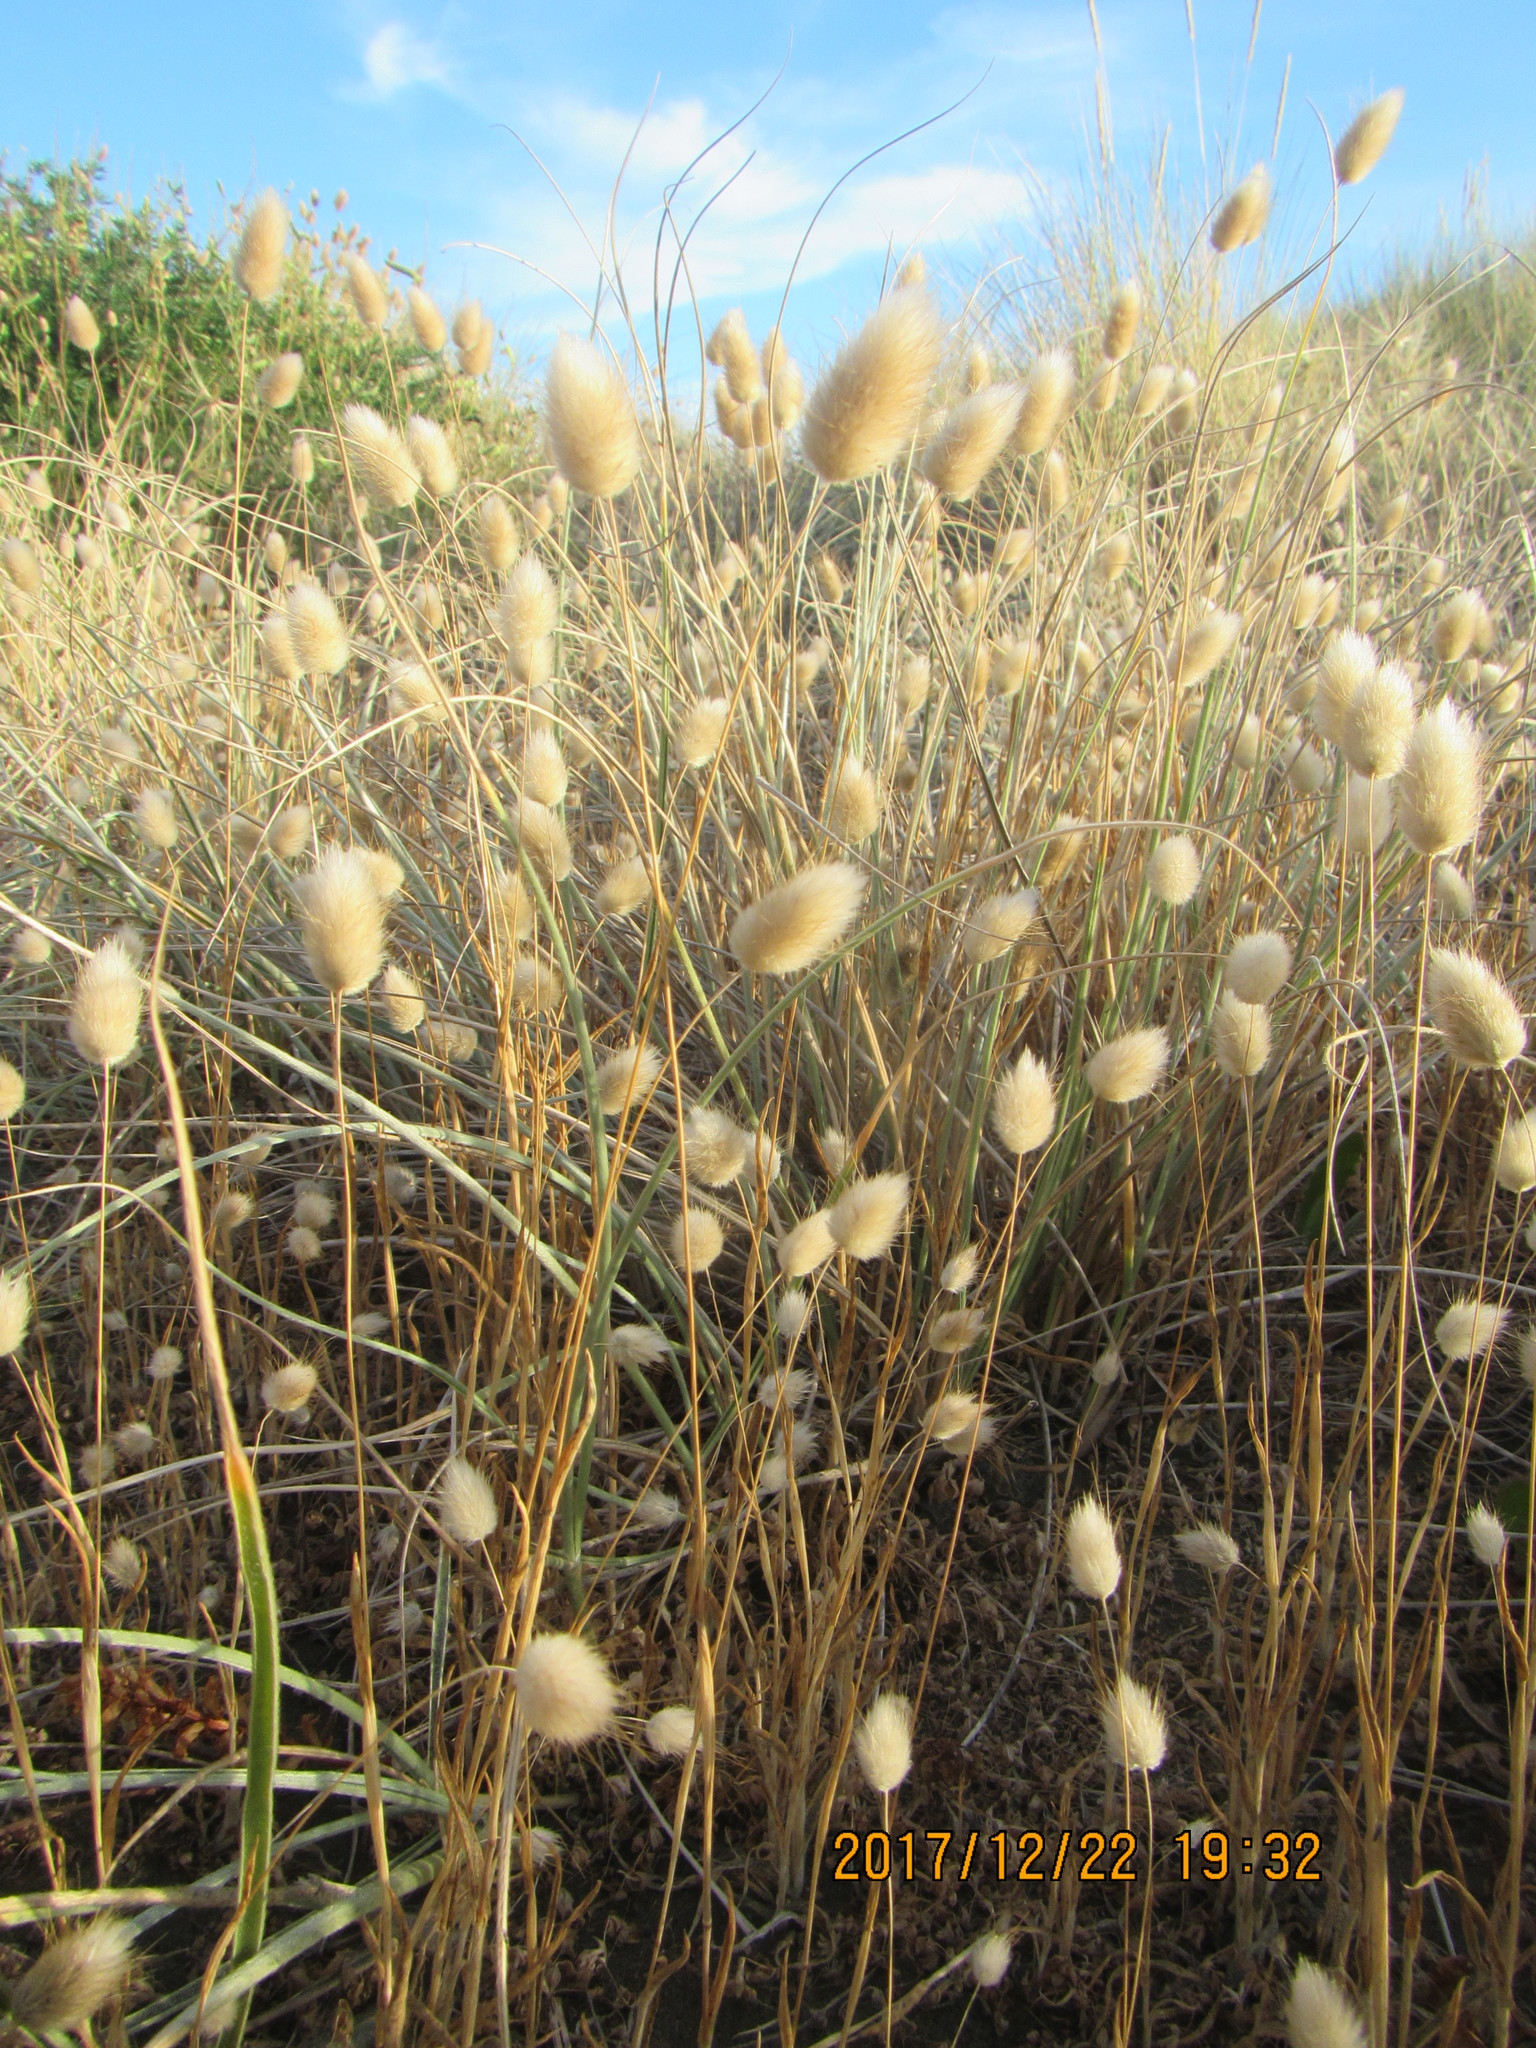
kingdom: Plantae
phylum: Tracheophyta
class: Liliopsida
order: Poales
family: Poaceae
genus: Lagurus
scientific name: Lagurus ovatus
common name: Hare's-tail
